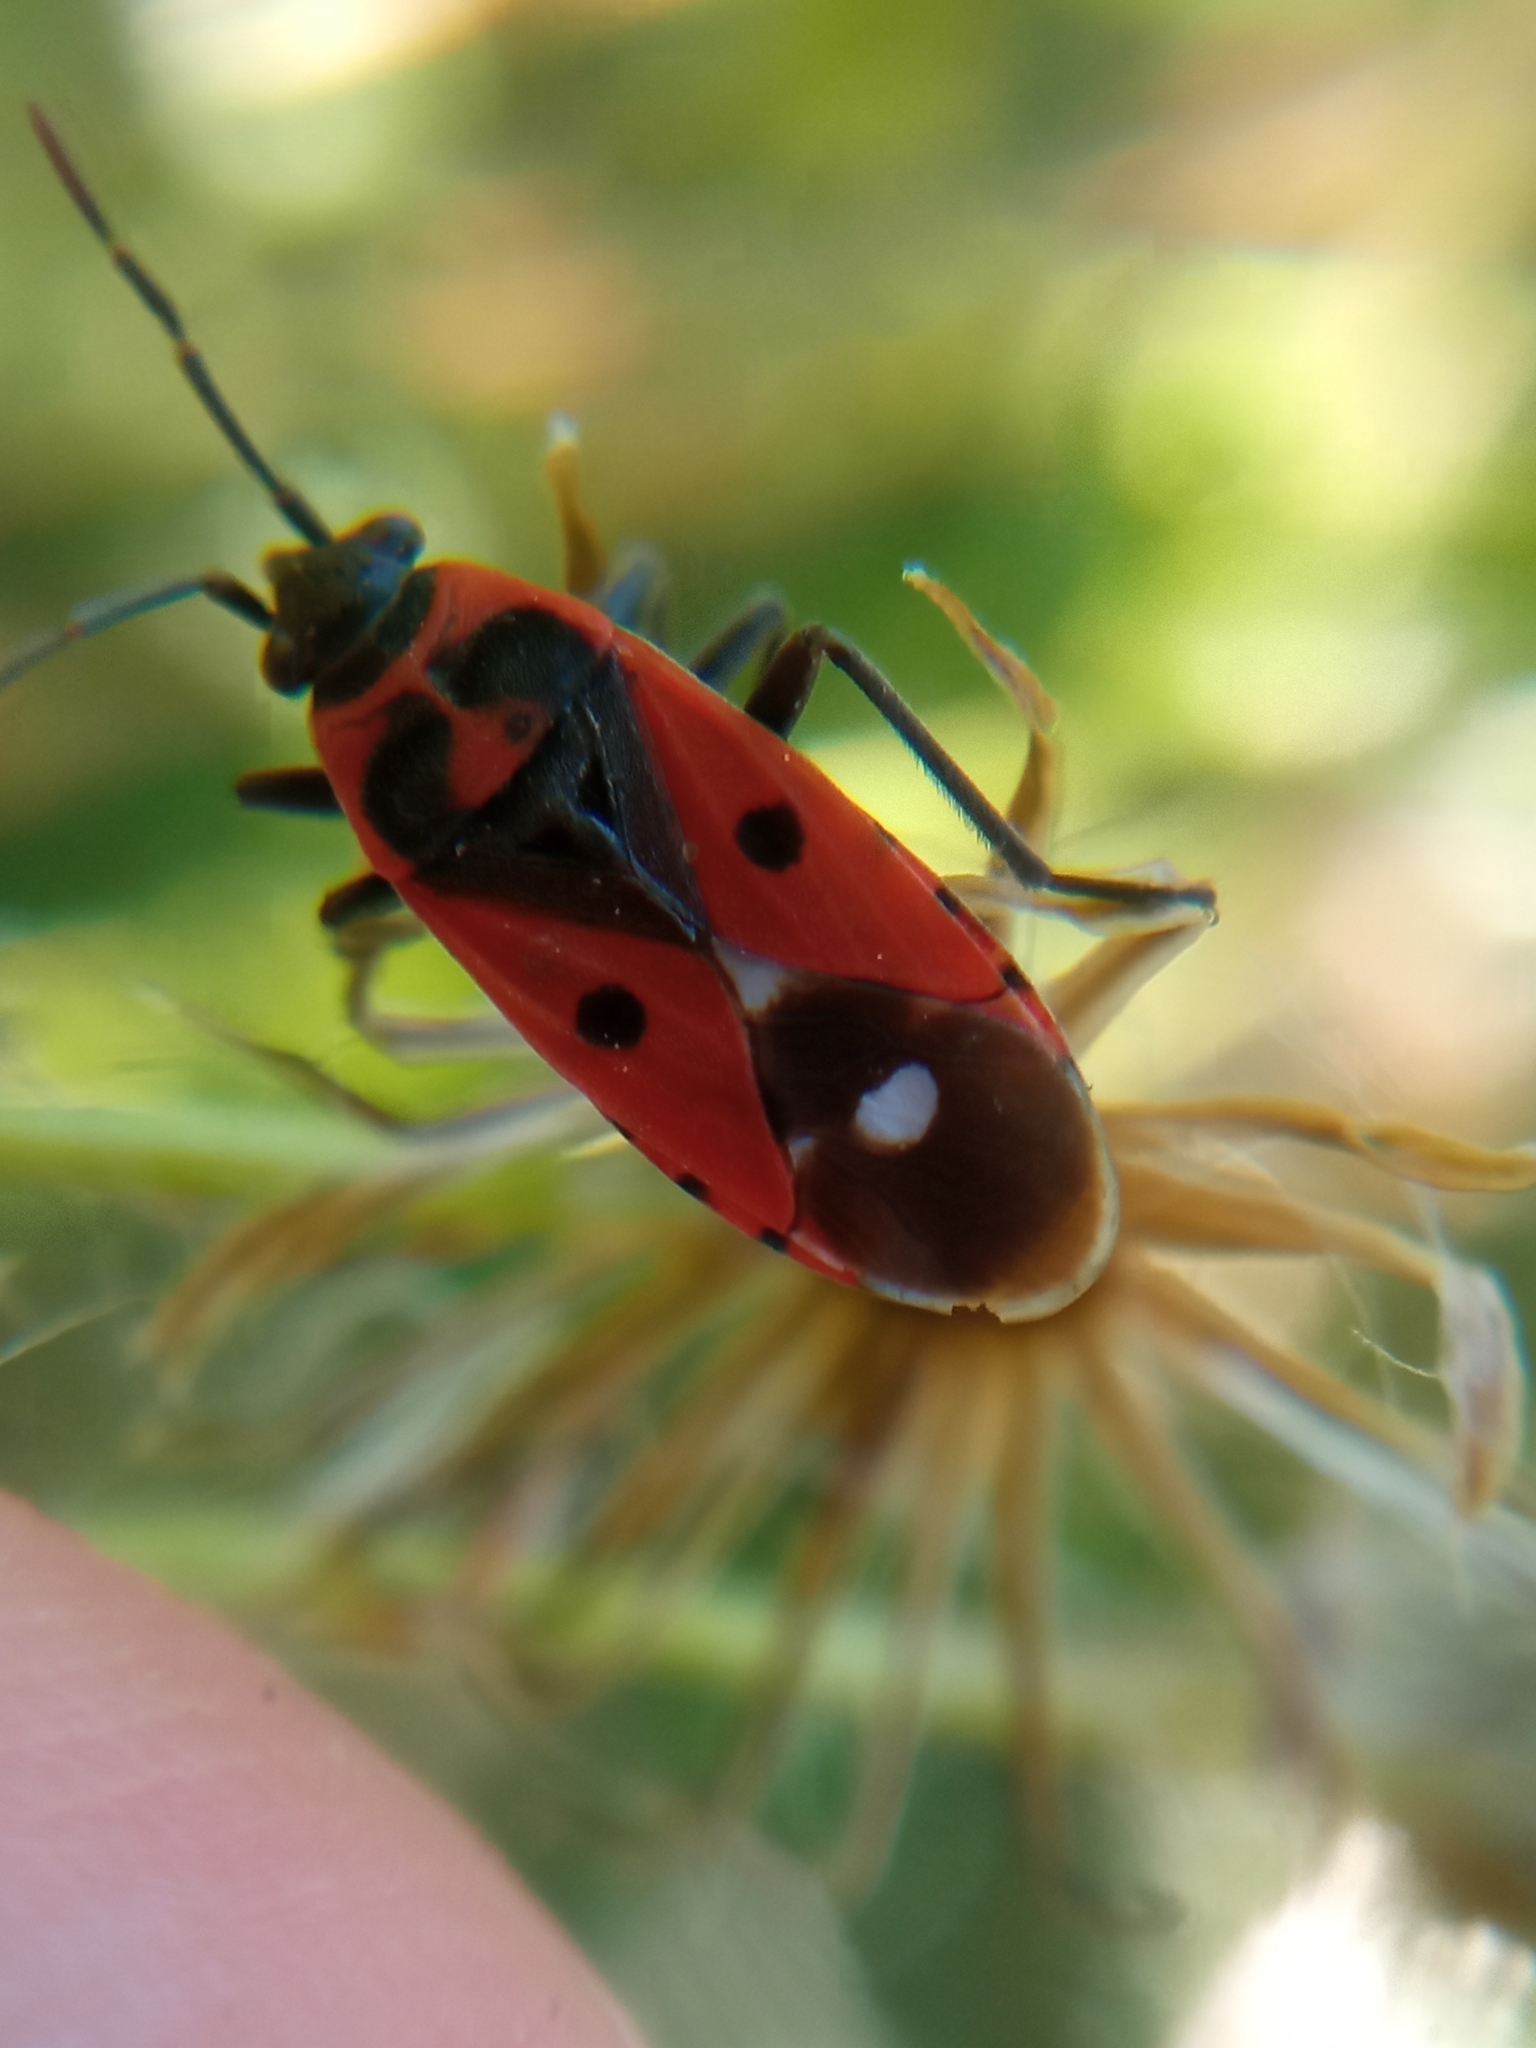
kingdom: Animalia
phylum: Arthropoda
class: Insecta
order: Hemiptera
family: Lygaeidae
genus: Melanocoryphus
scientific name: Melanocoryphus albomaculatus
